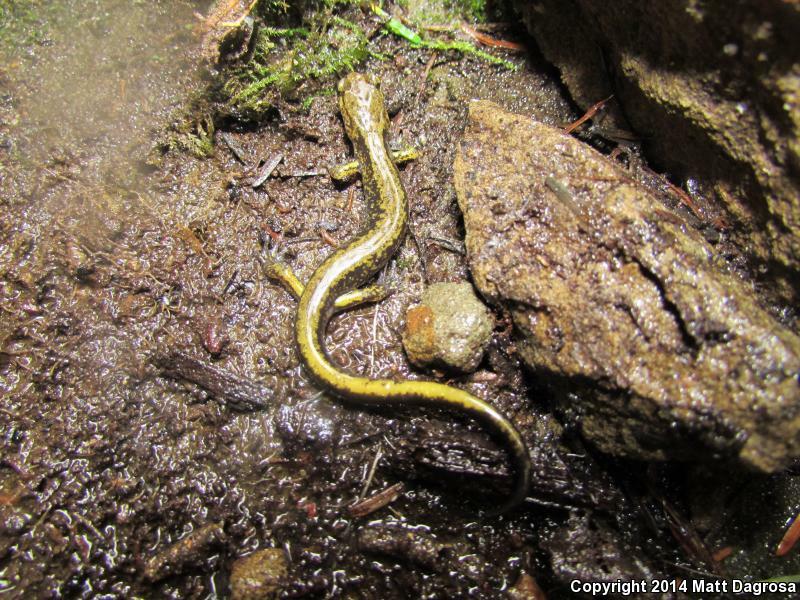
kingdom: Animalia
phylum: Chordata
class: Amphibia
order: Caudata
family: Plethodontidae
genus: Plethodon
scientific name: Plethodon dunni
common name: Dunn's salamander
